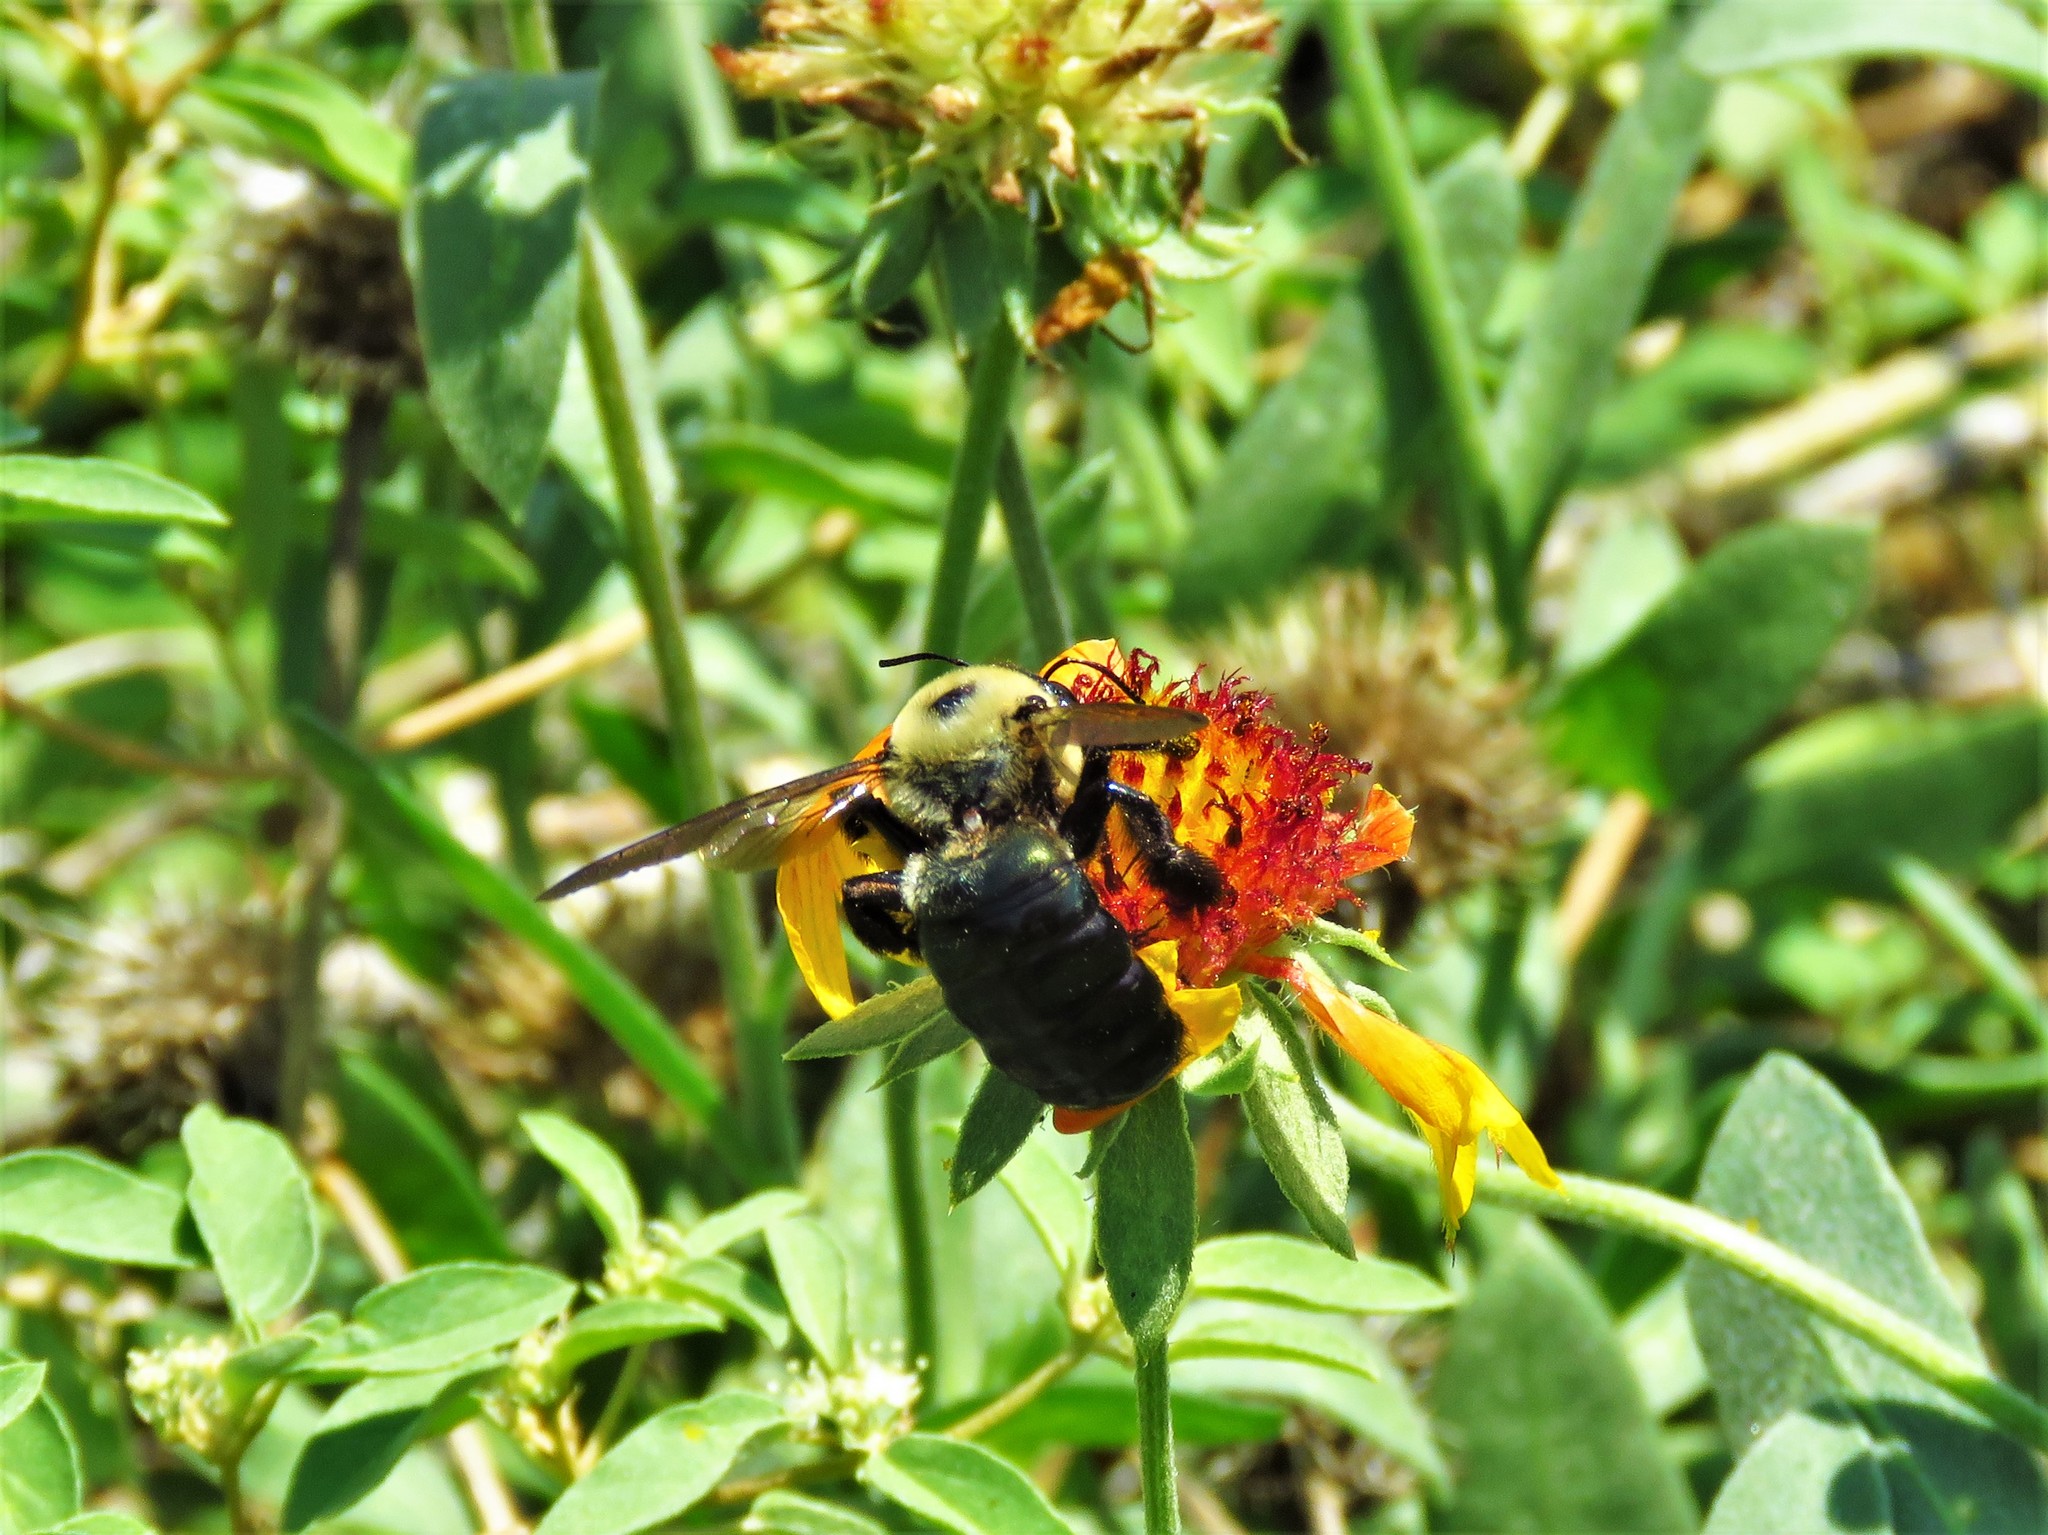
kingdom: Animalia
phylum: Arthropoda
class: Insecta
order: Hymenoptera
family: Apidae
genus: Xylocopa
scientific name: Xylocopa virginica
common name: Carpenter bee
